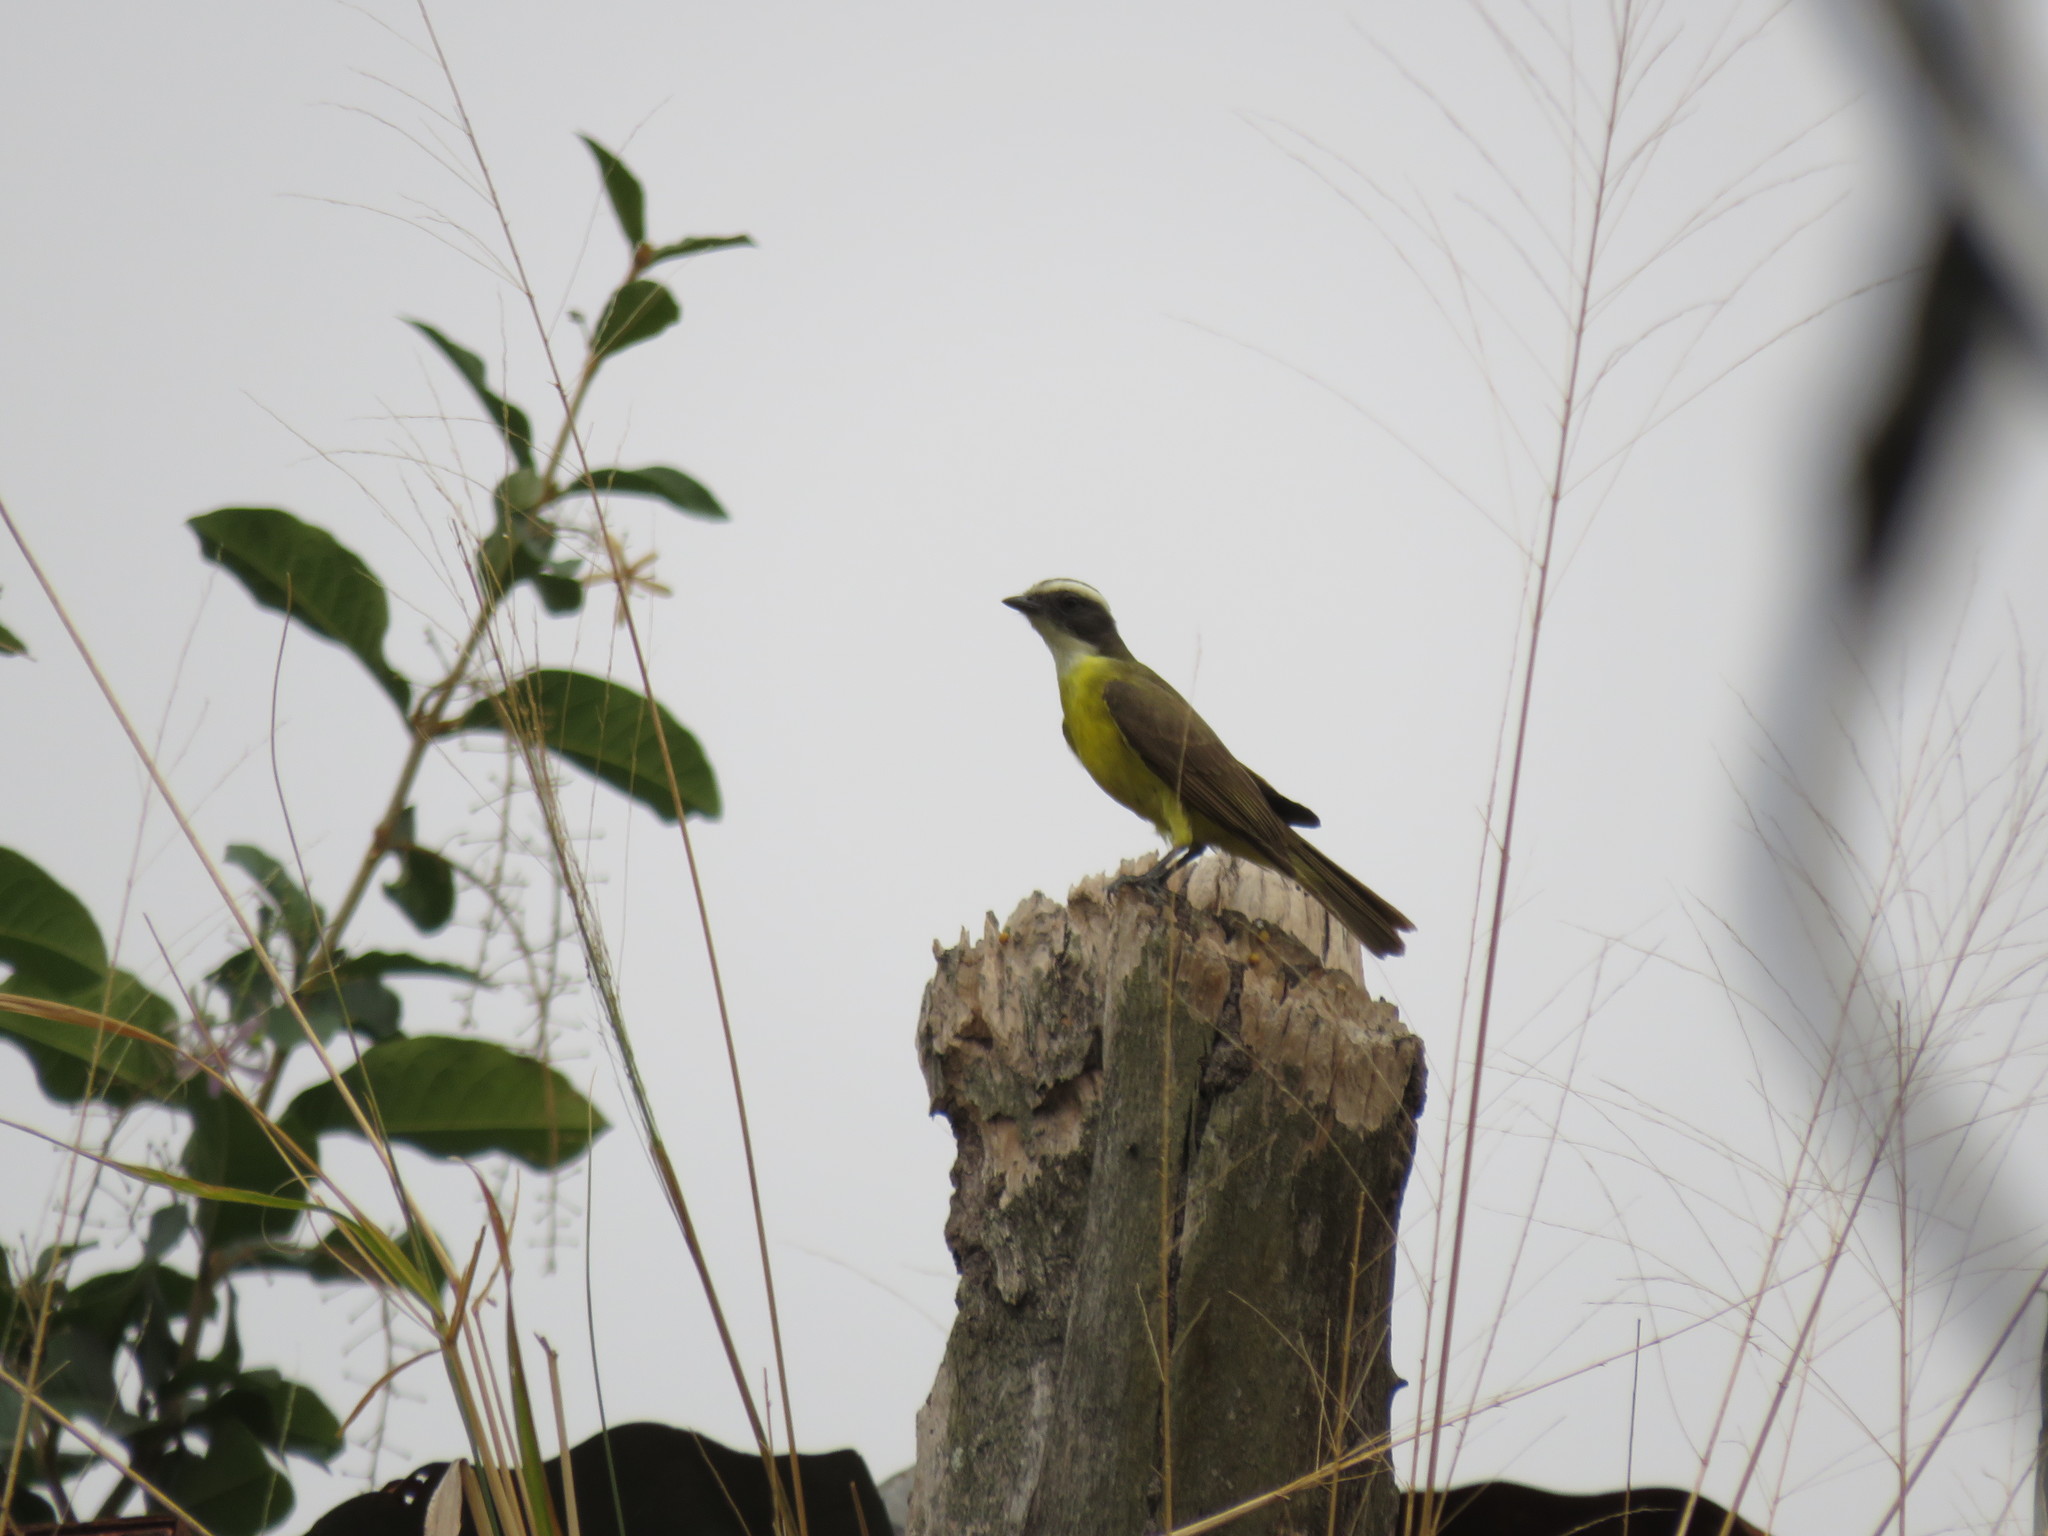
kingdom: Animalia
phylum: Chordata
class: Aves
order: Passeriformes
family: Tyrannidae
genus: Myiozetetes
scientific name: Myiozetetes similis
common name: Social flycatcher
